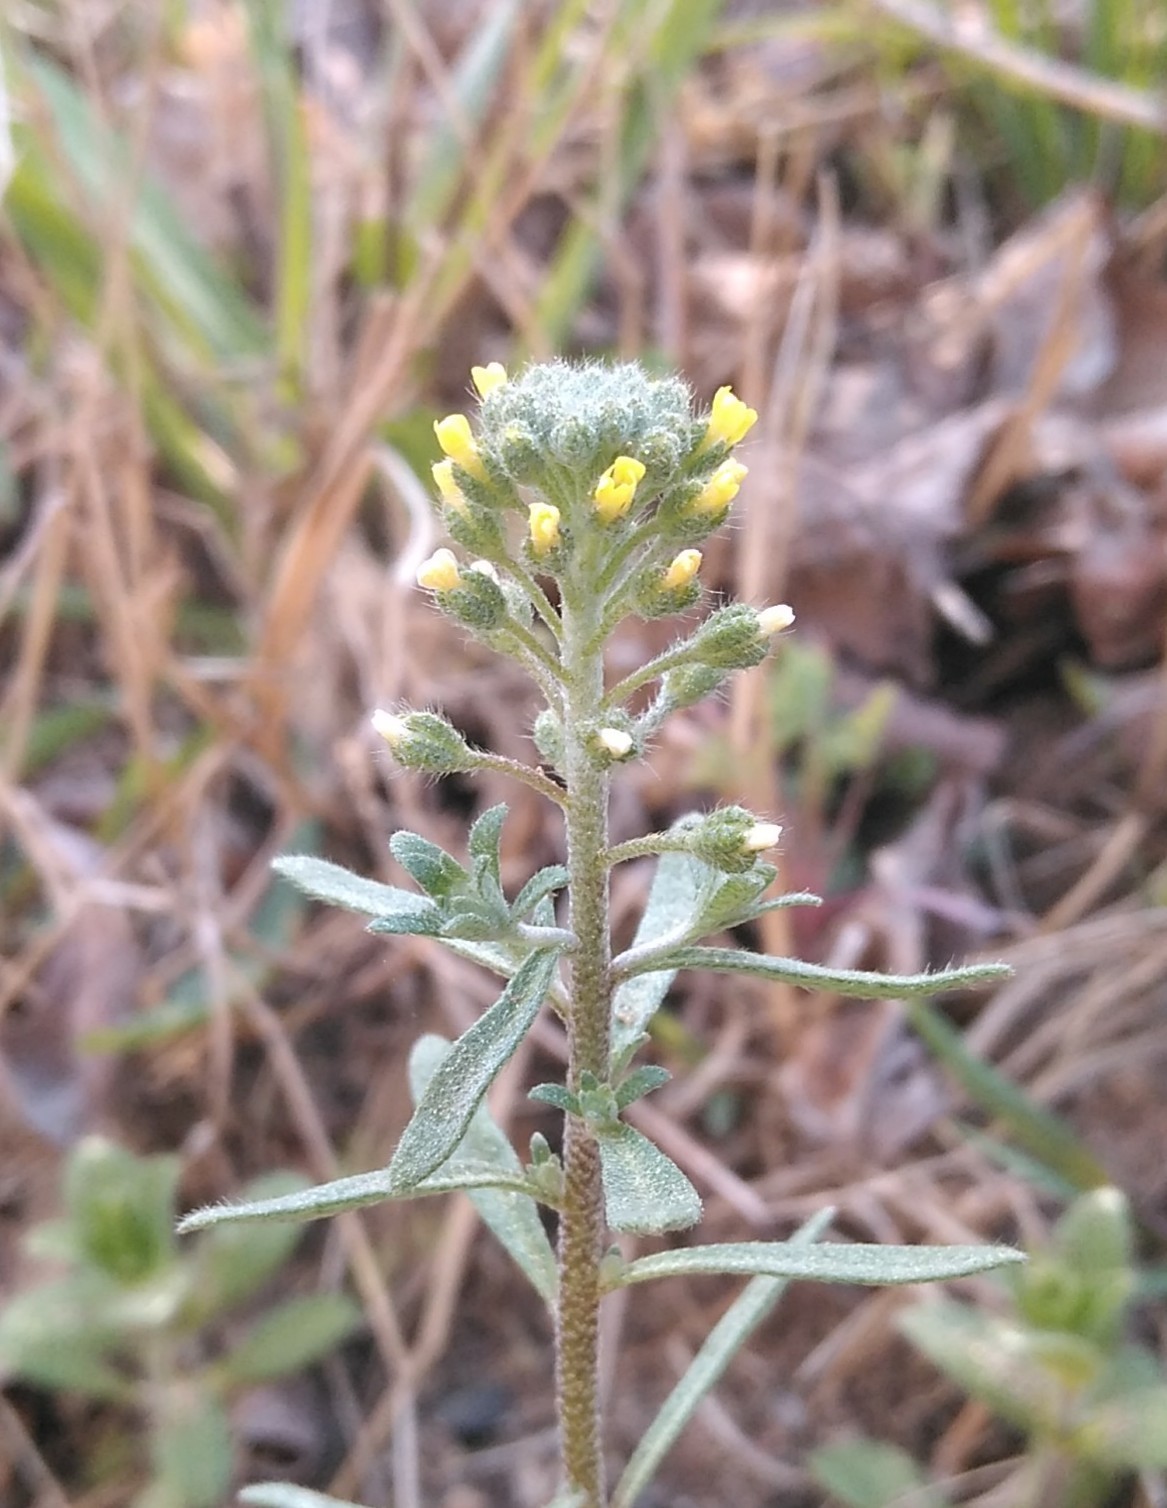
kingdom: Plantae
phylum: Tracheophyta
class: Magnoliopsida
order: Brassicales
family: Brassicaceae
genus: Alyssum
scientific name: Alyssum alyssoides
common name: Small alison
